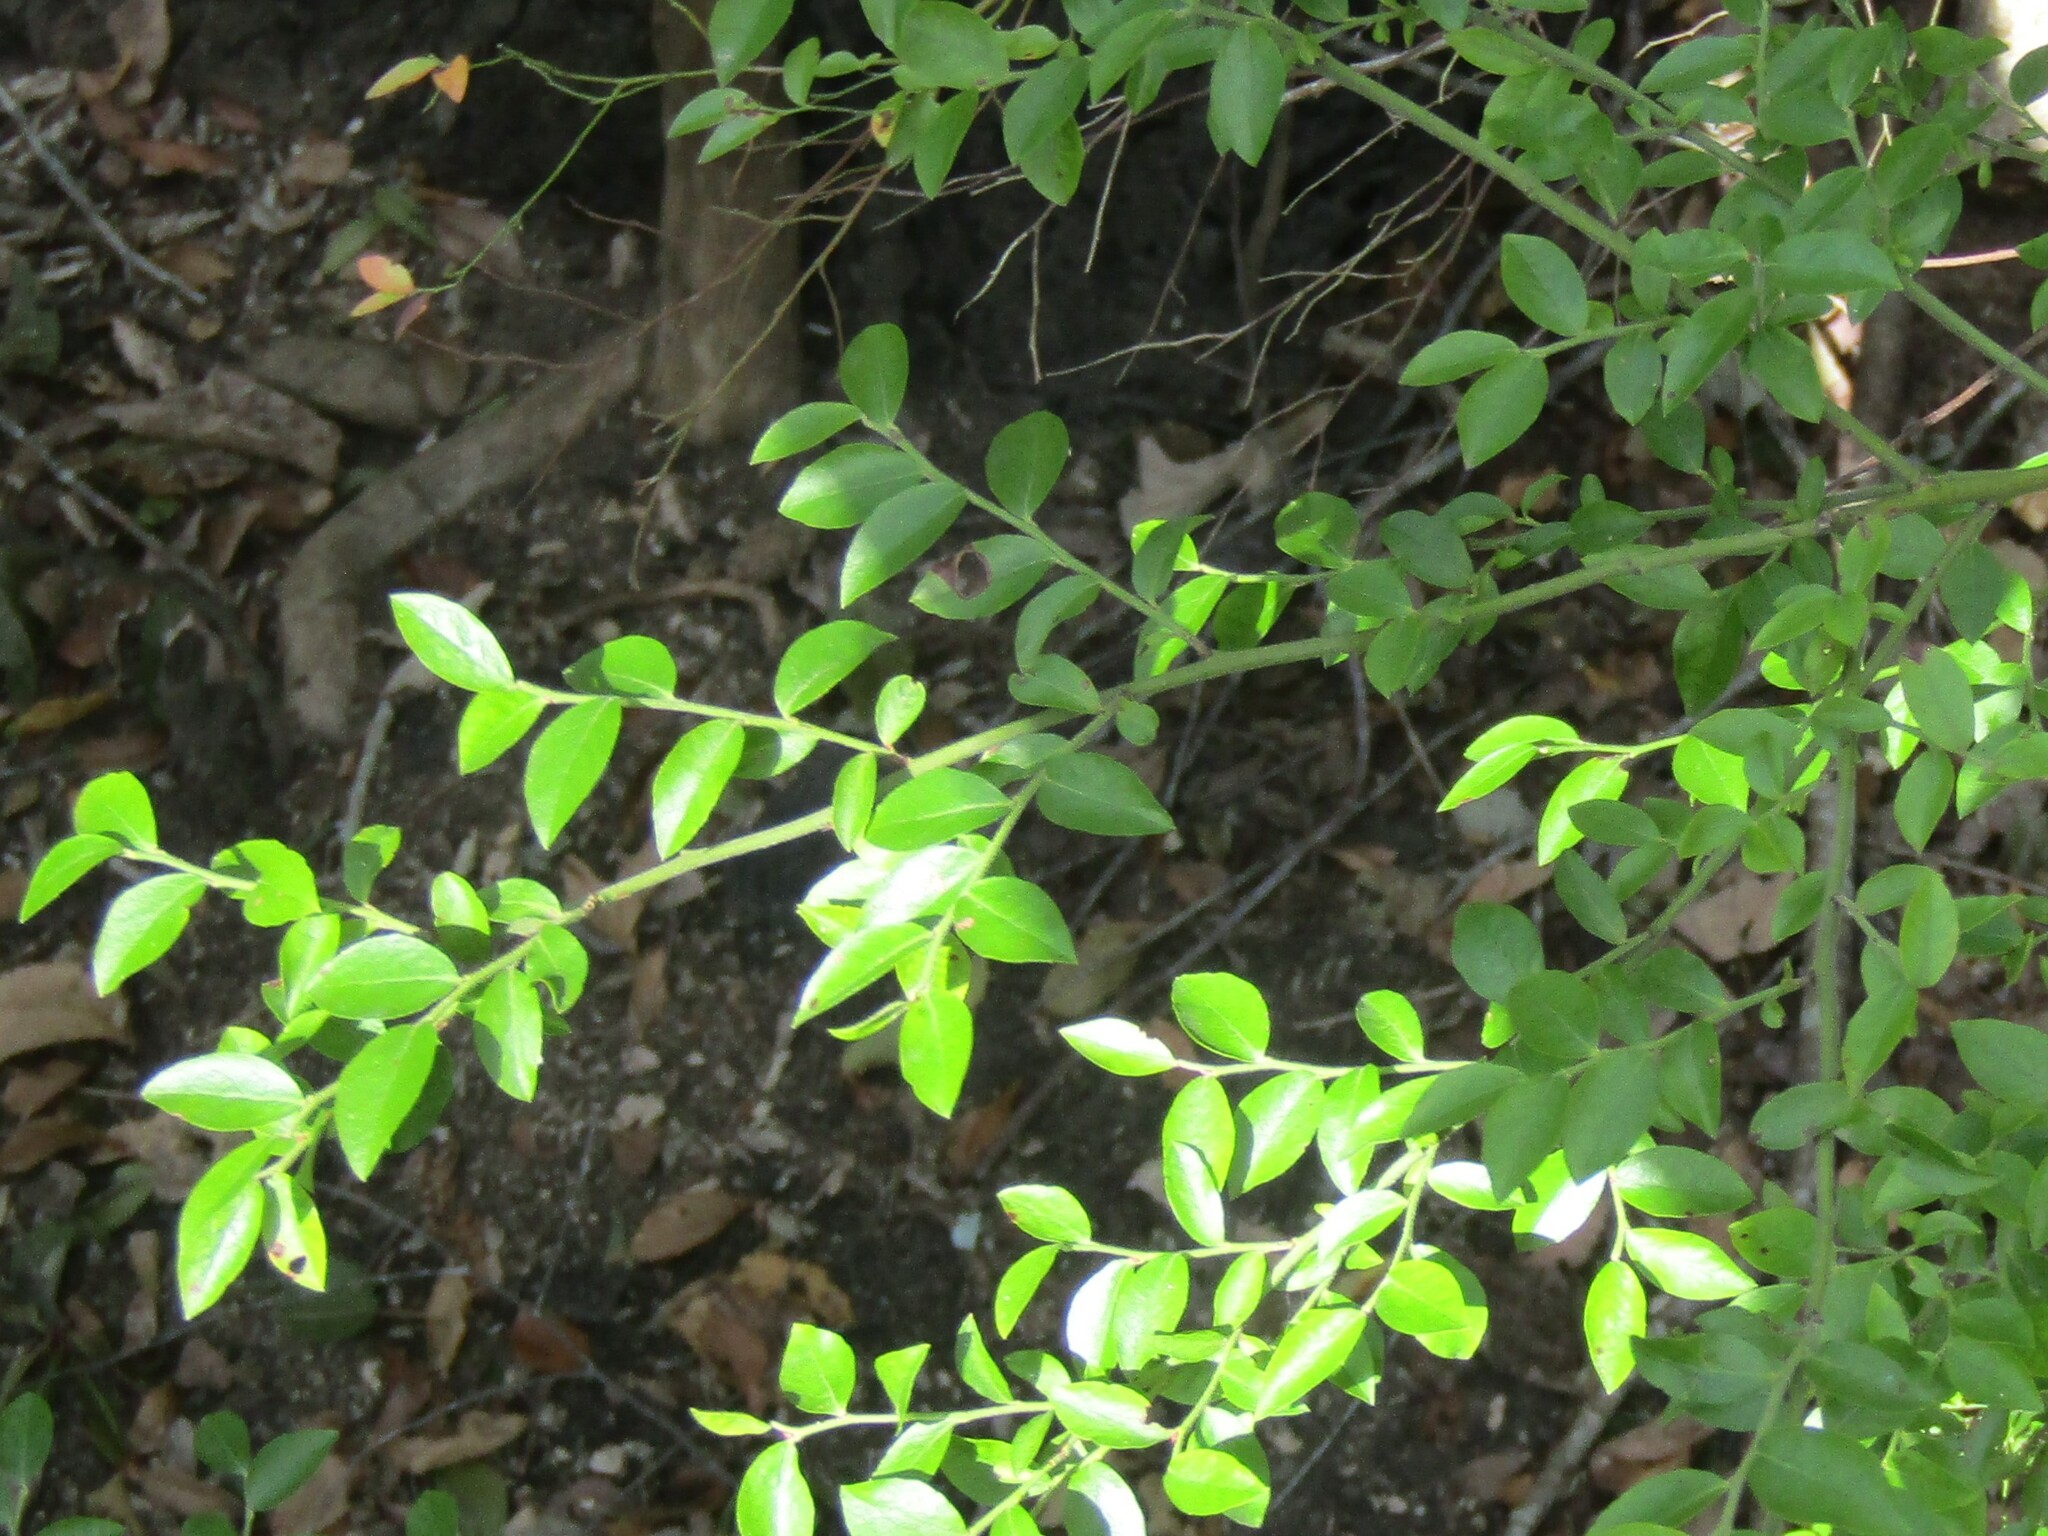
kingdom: Plantae
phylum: Tracheophyta
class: Magnoliopsida
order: Ericales
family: Ericaceae
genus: Vaccinium
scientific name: Vaccinium corymbosum
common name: Blueberry
